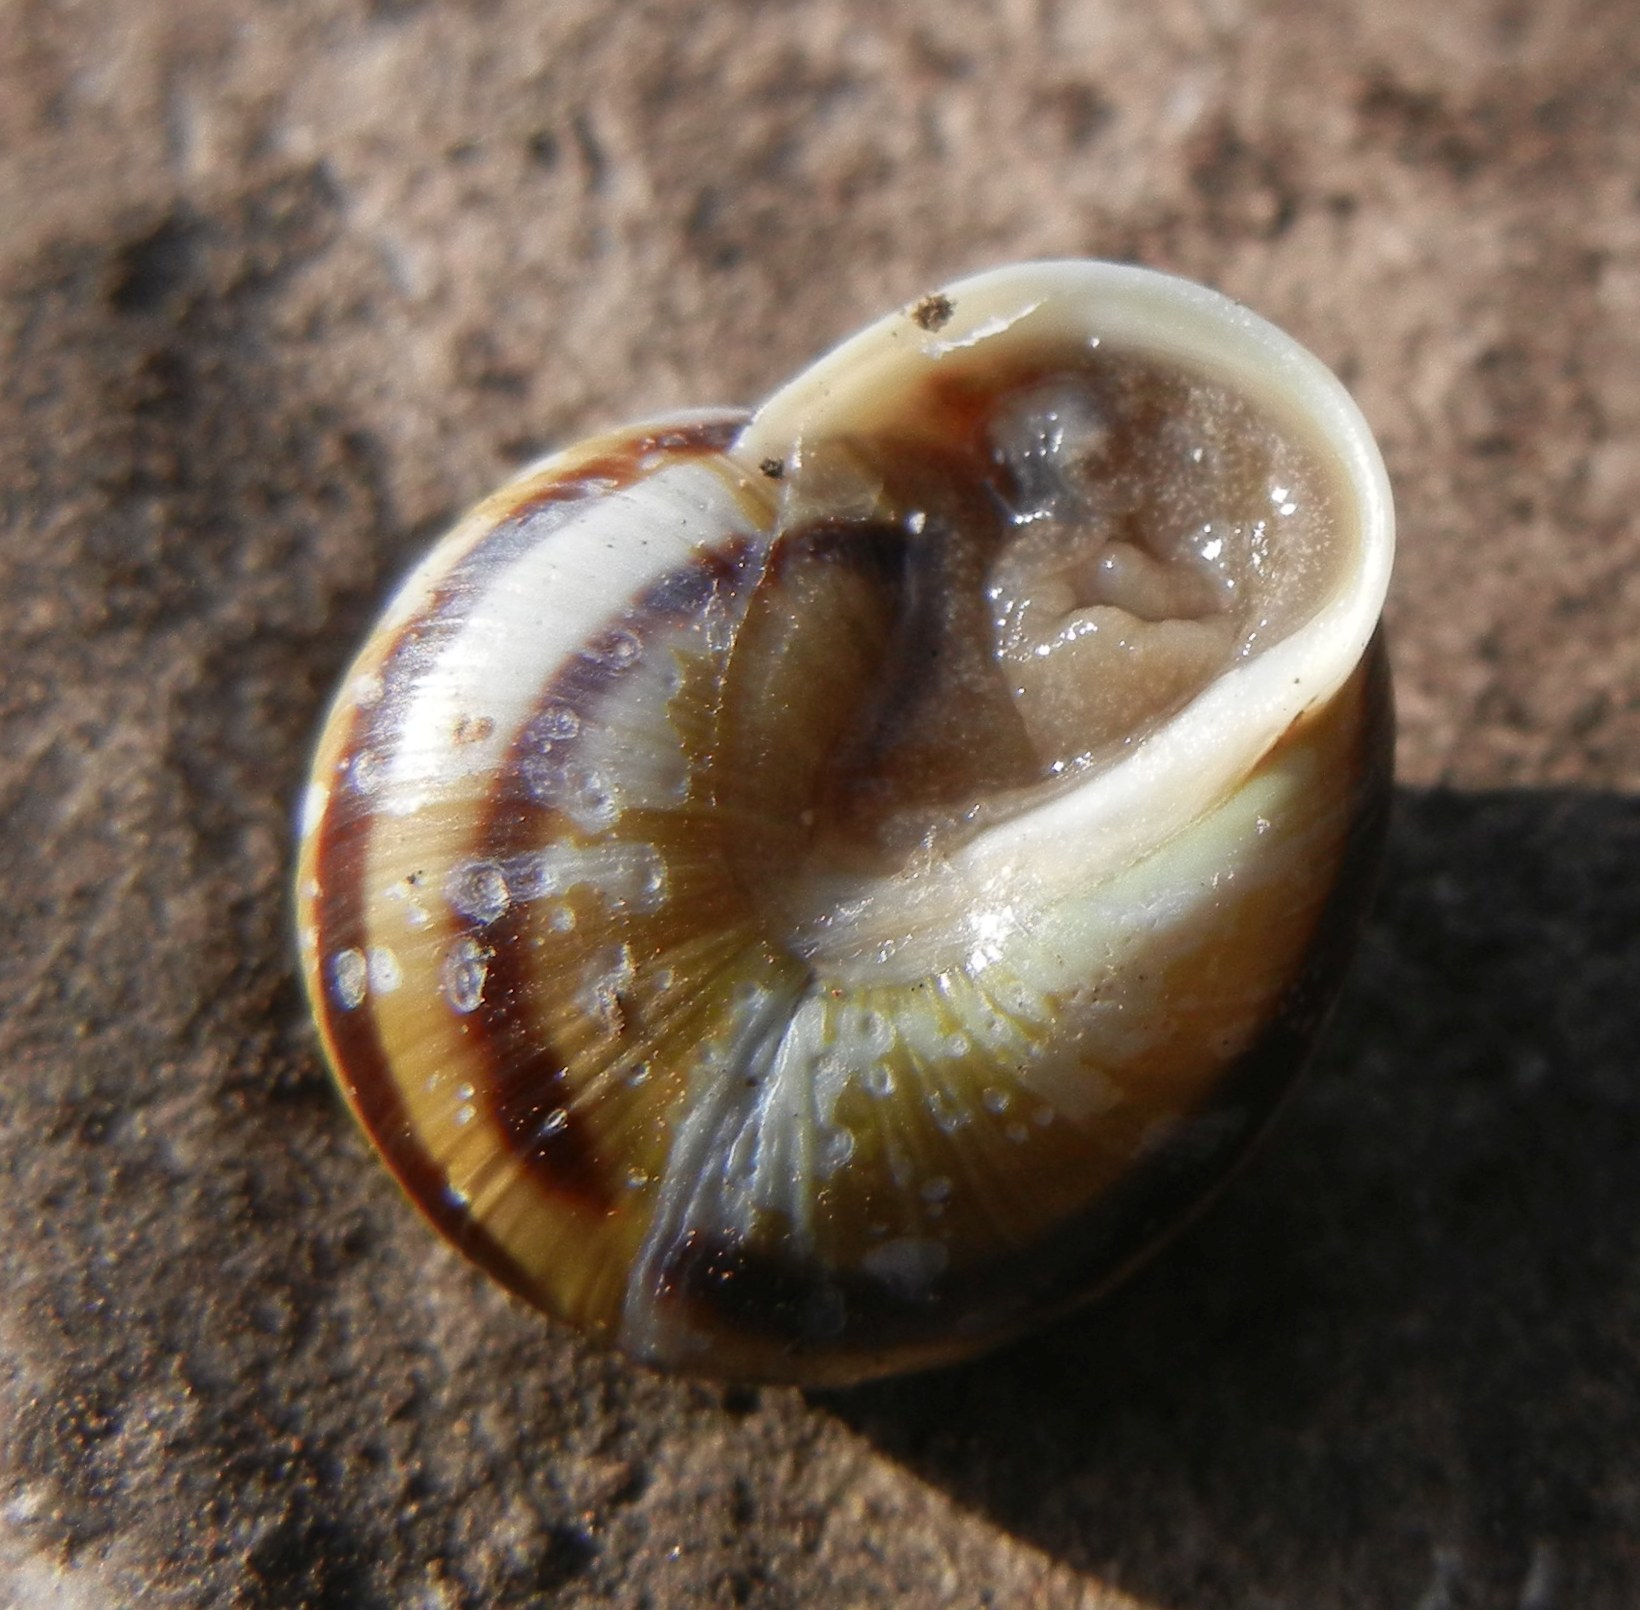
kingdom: Animalia
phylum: Mollusca
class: Gastropoda
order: Stylommatophora
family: Helicidae
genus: Cepaea
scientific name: Cepaea hortensis
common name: White-lip gardensnail
